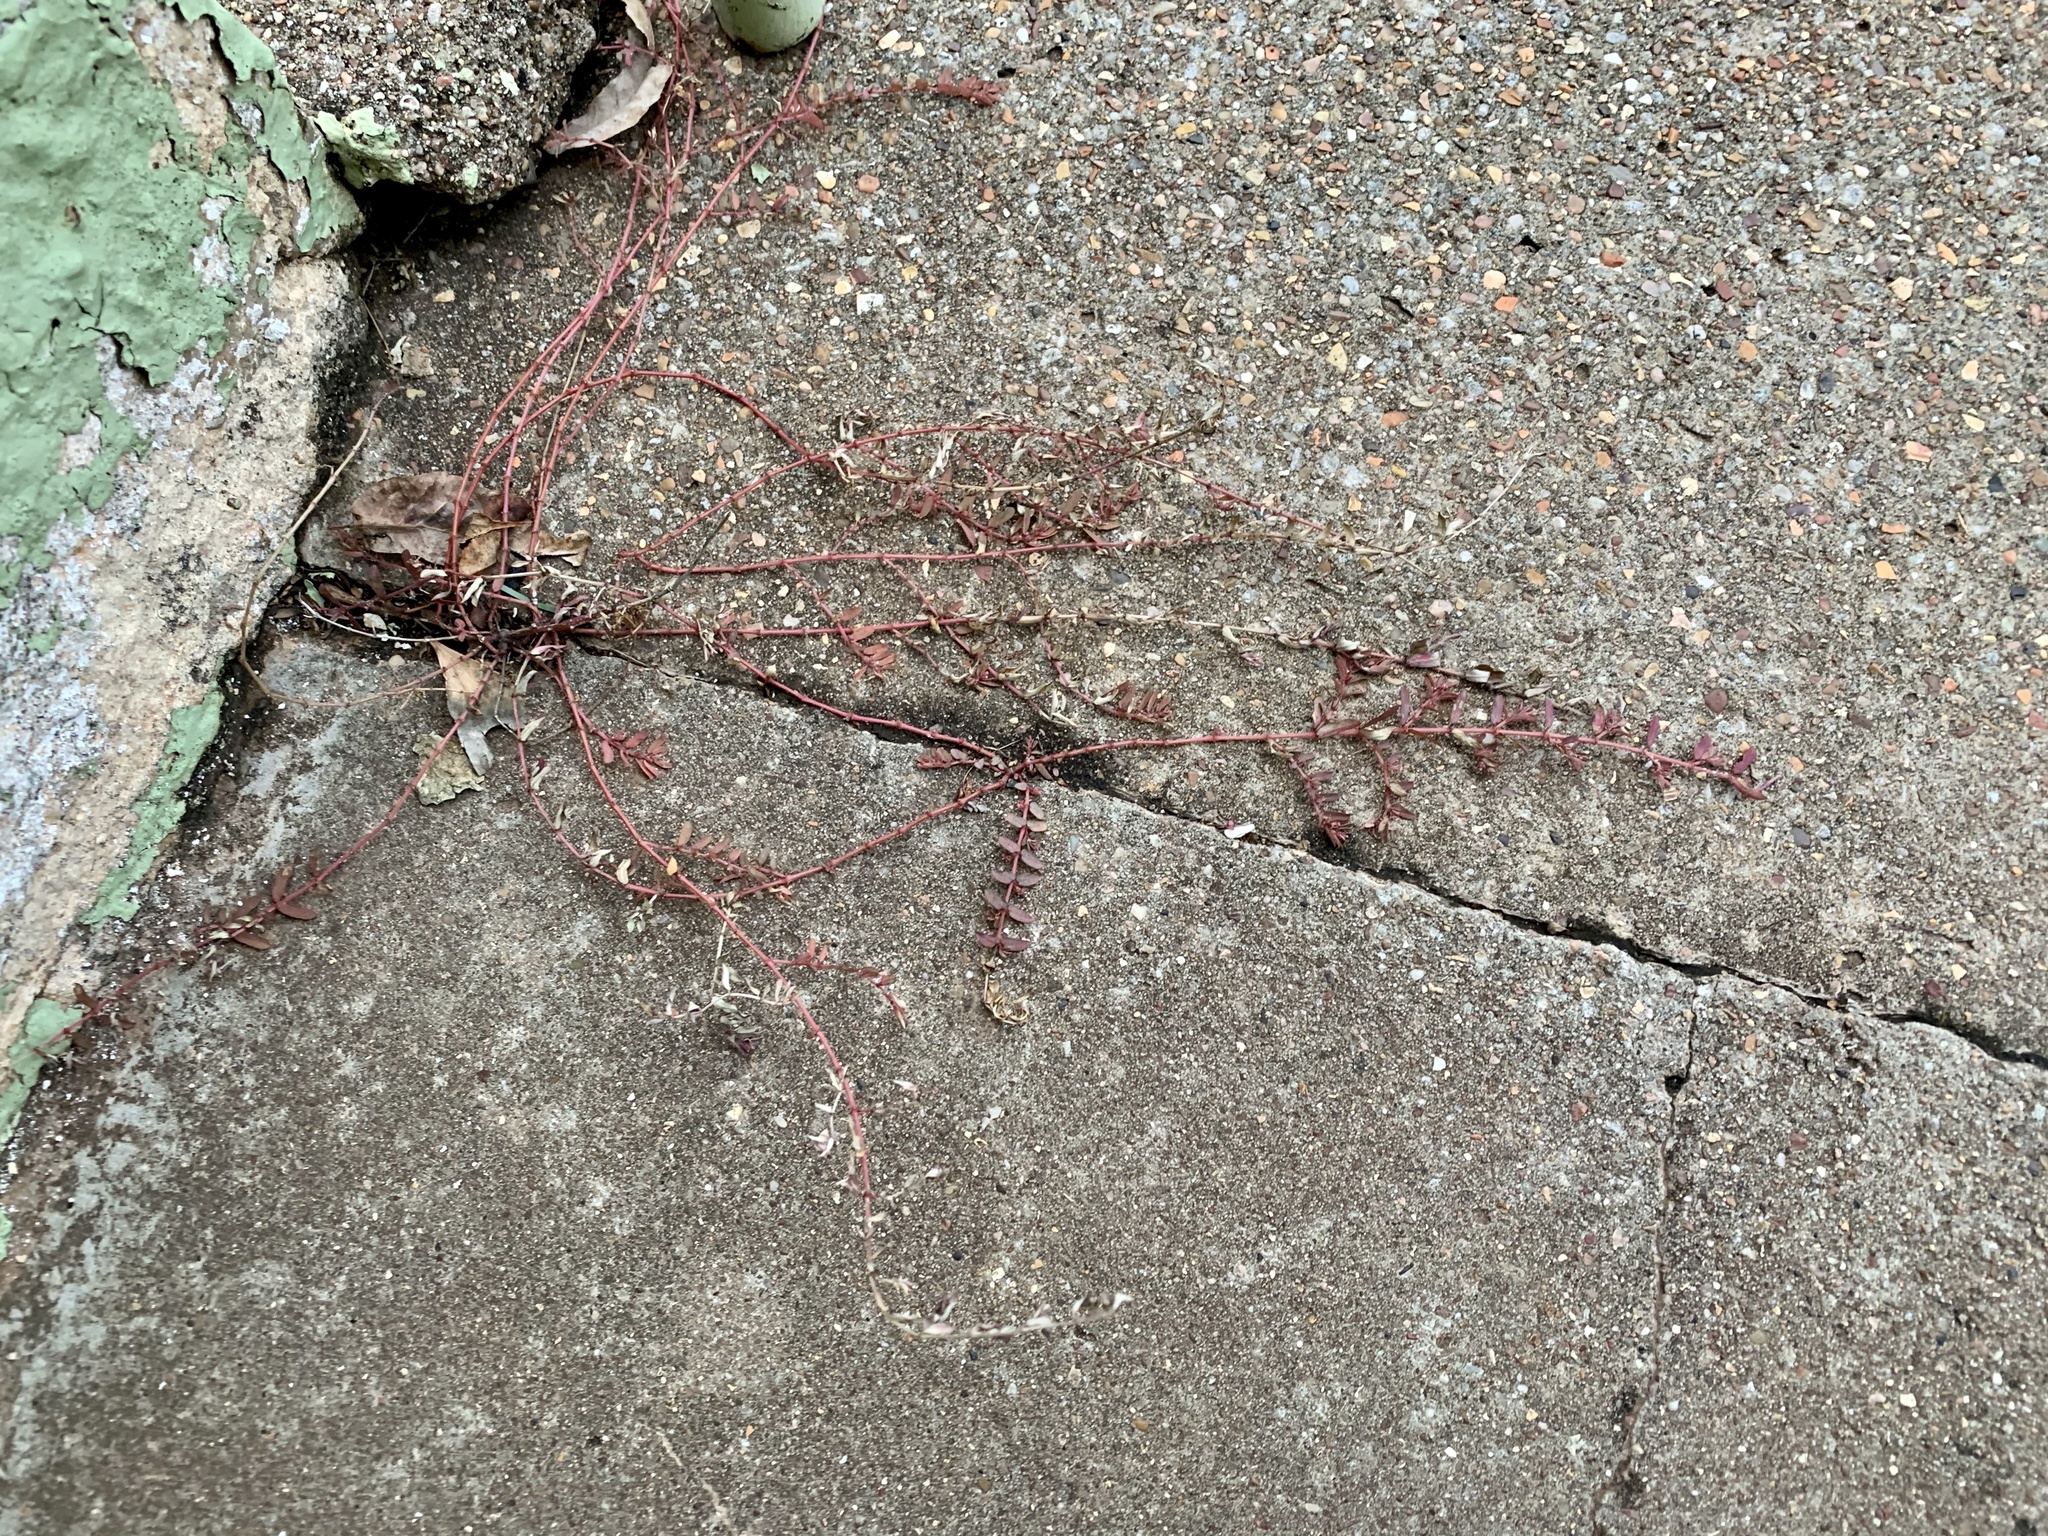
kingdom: Plantae
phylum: Tracheophyta
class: Magnoliopsida
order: Malpighiales
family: Euphorbiaceae
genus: Euphorbia
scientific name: Euphorbia maculata
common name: Spotted spurge
